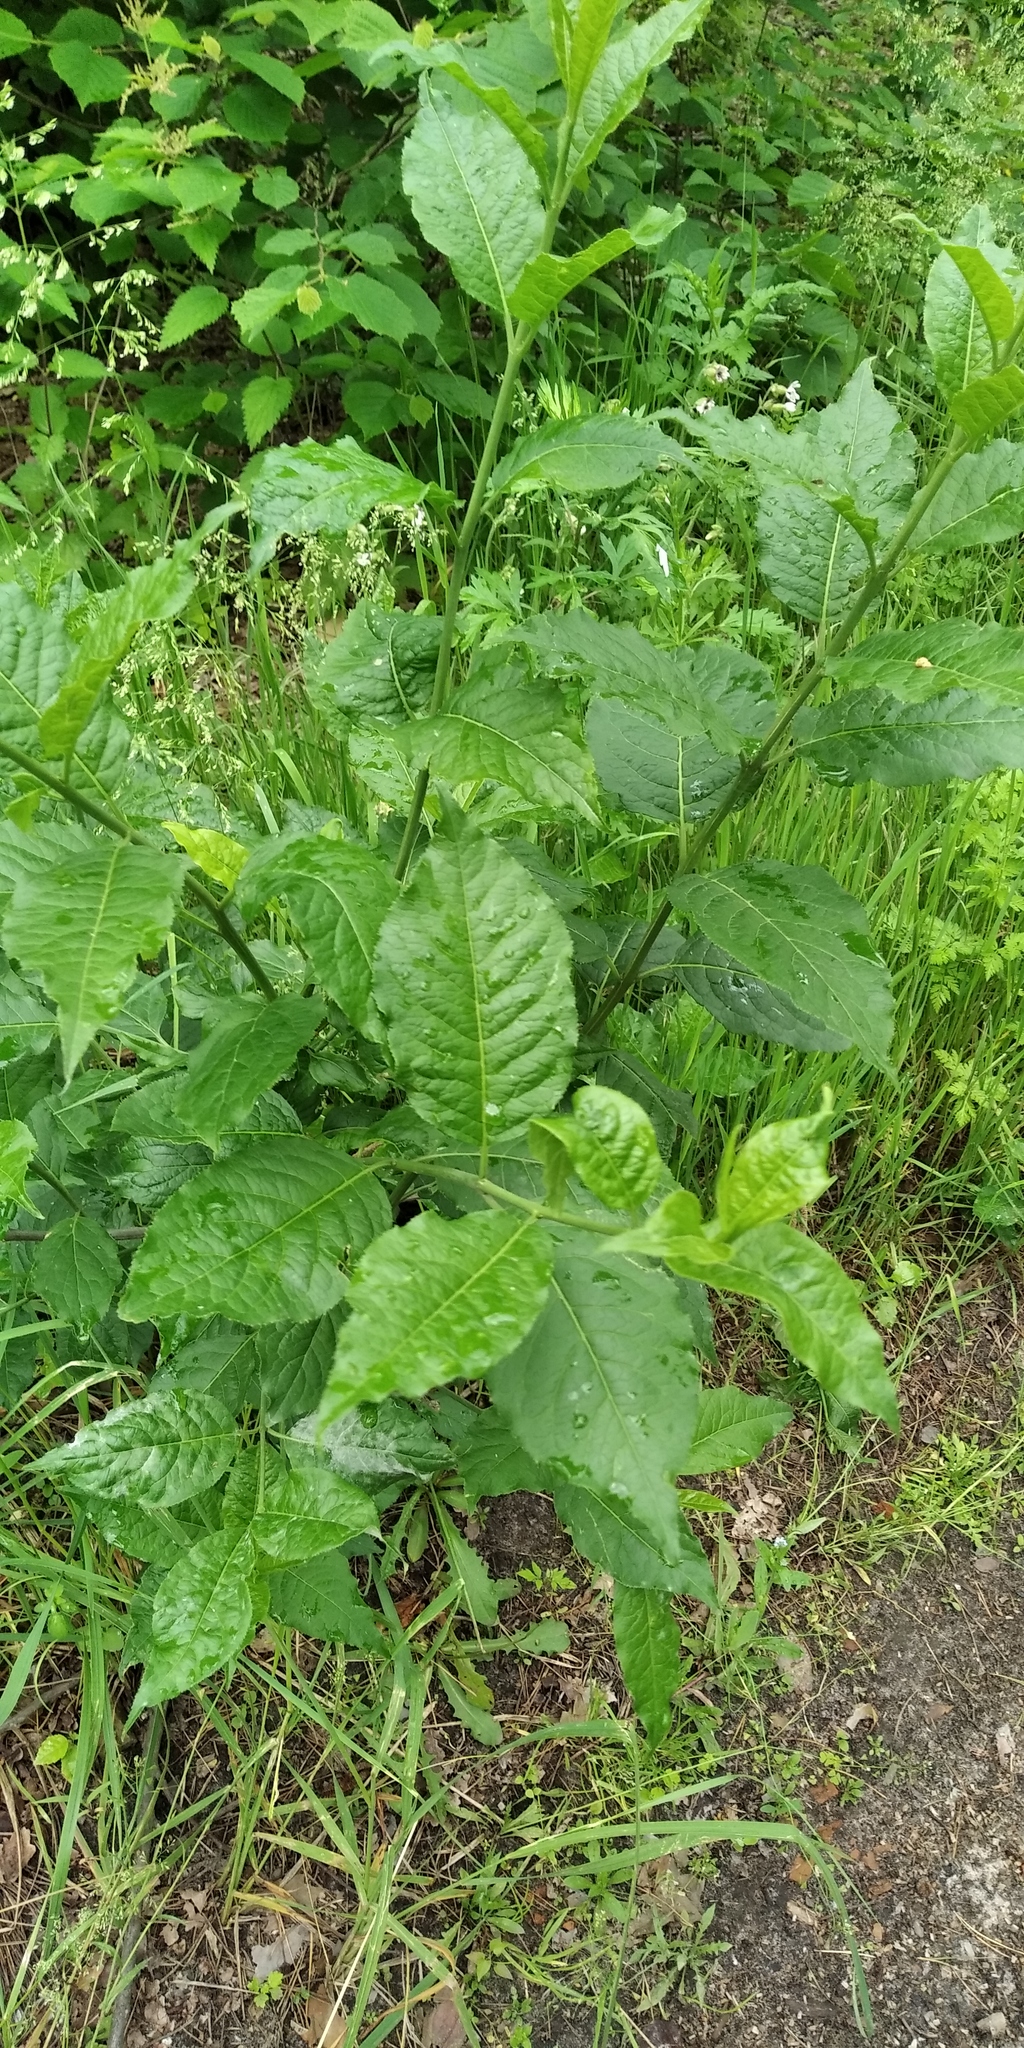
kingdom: Plantae
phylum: Tracheophyta
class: Magnoliopsida
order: Celastrales
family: Celastraceae
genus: Euonymus
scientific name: Euonymus europaeus
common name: Spindle
